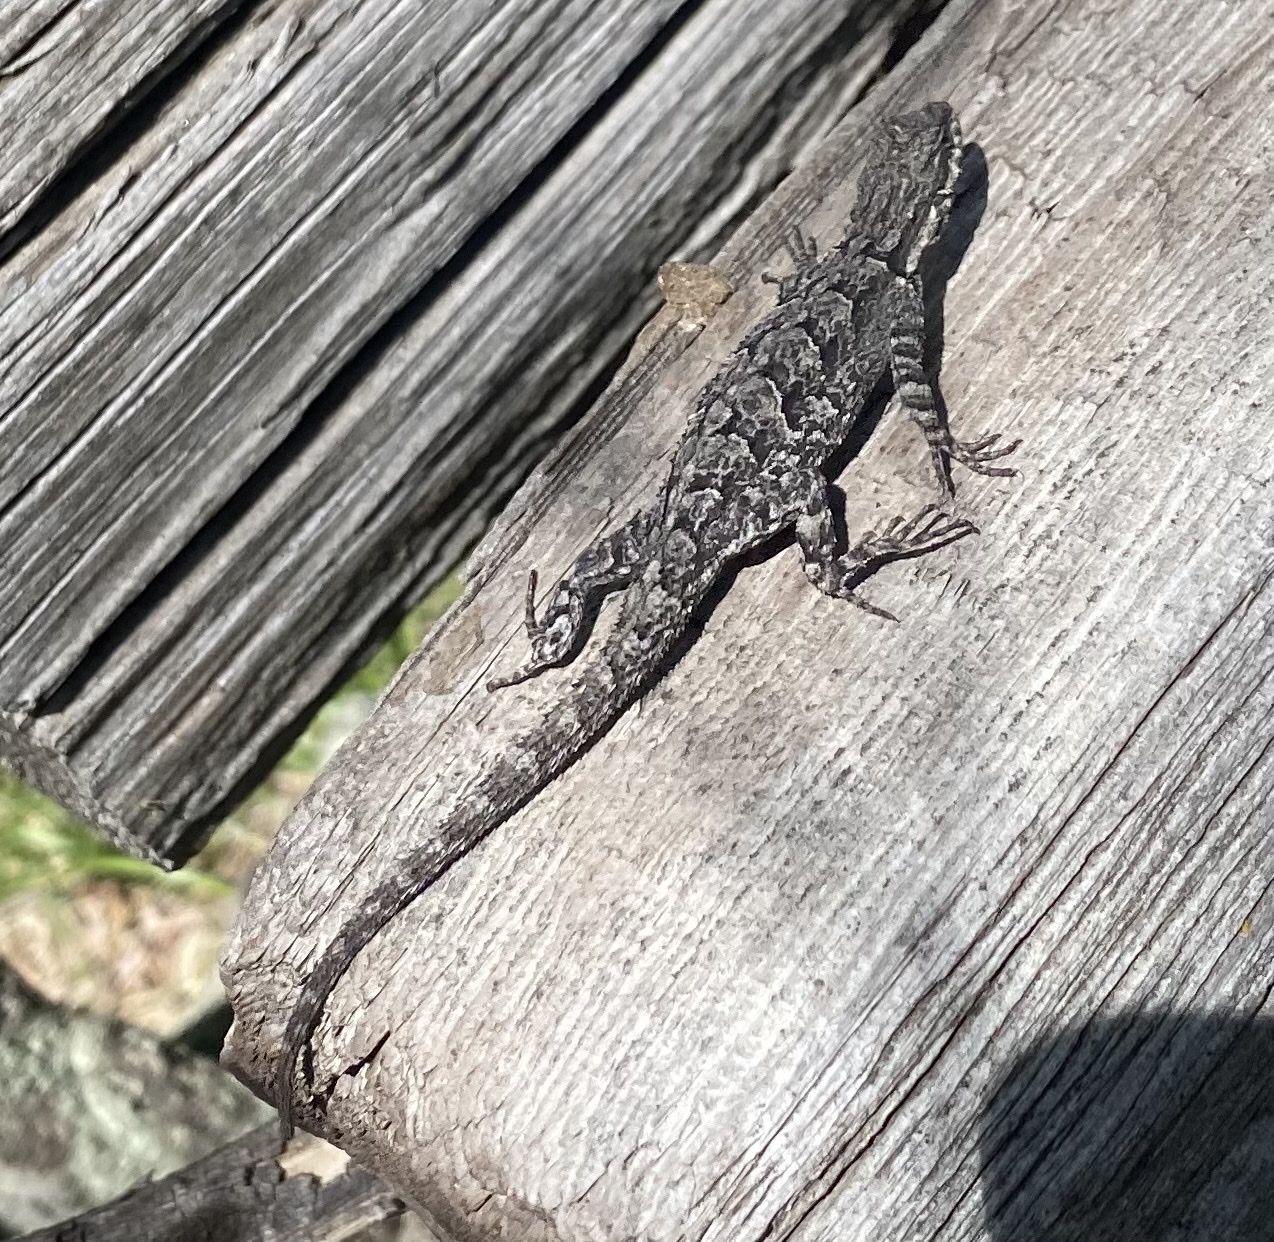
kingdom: Animalia
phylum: Chordata
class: Squamata
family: Phrynosomatidae
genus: Urosaurus
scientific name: Urosaurus ornatus
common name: Ornate tree lizard
